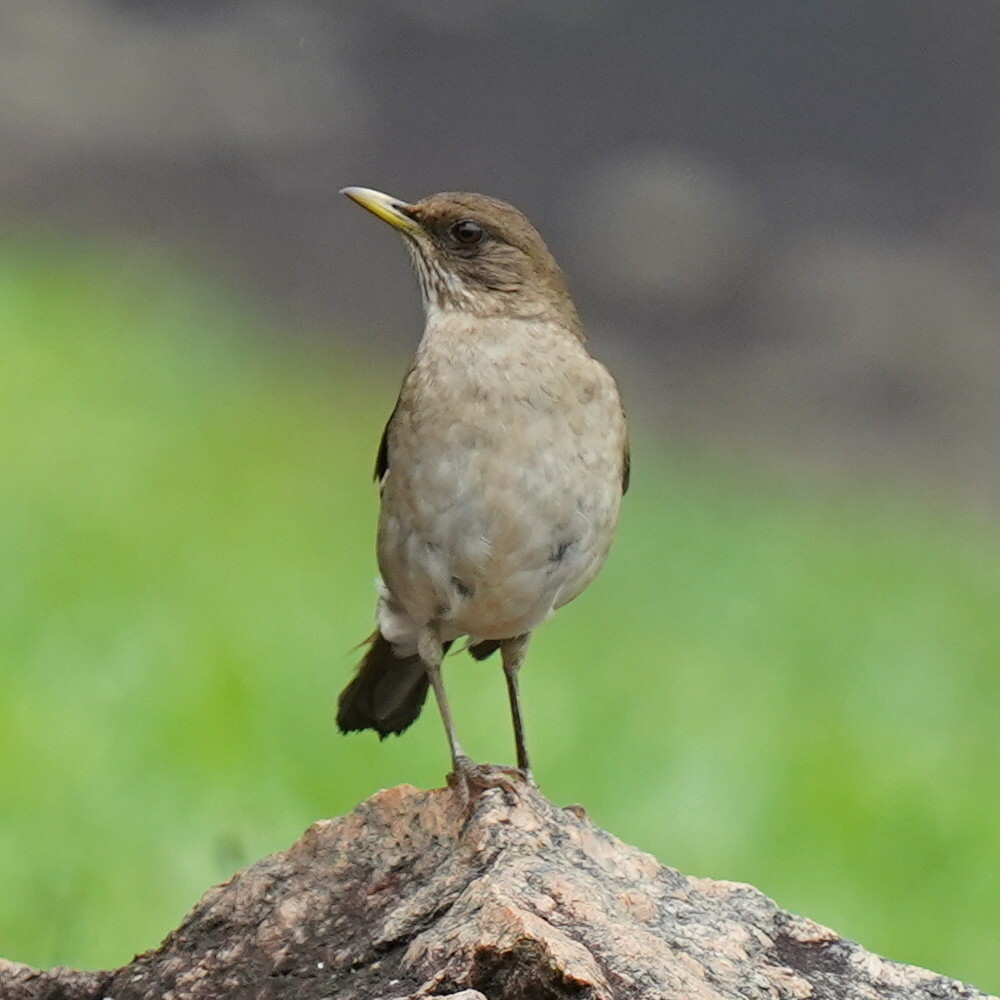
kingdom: Animalia
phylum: Chordata
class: Aves
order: Passeriformes
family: Turdidae
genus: Turdus
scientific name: Turdus amaurochalinus
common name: Creamy-bellied thrush
